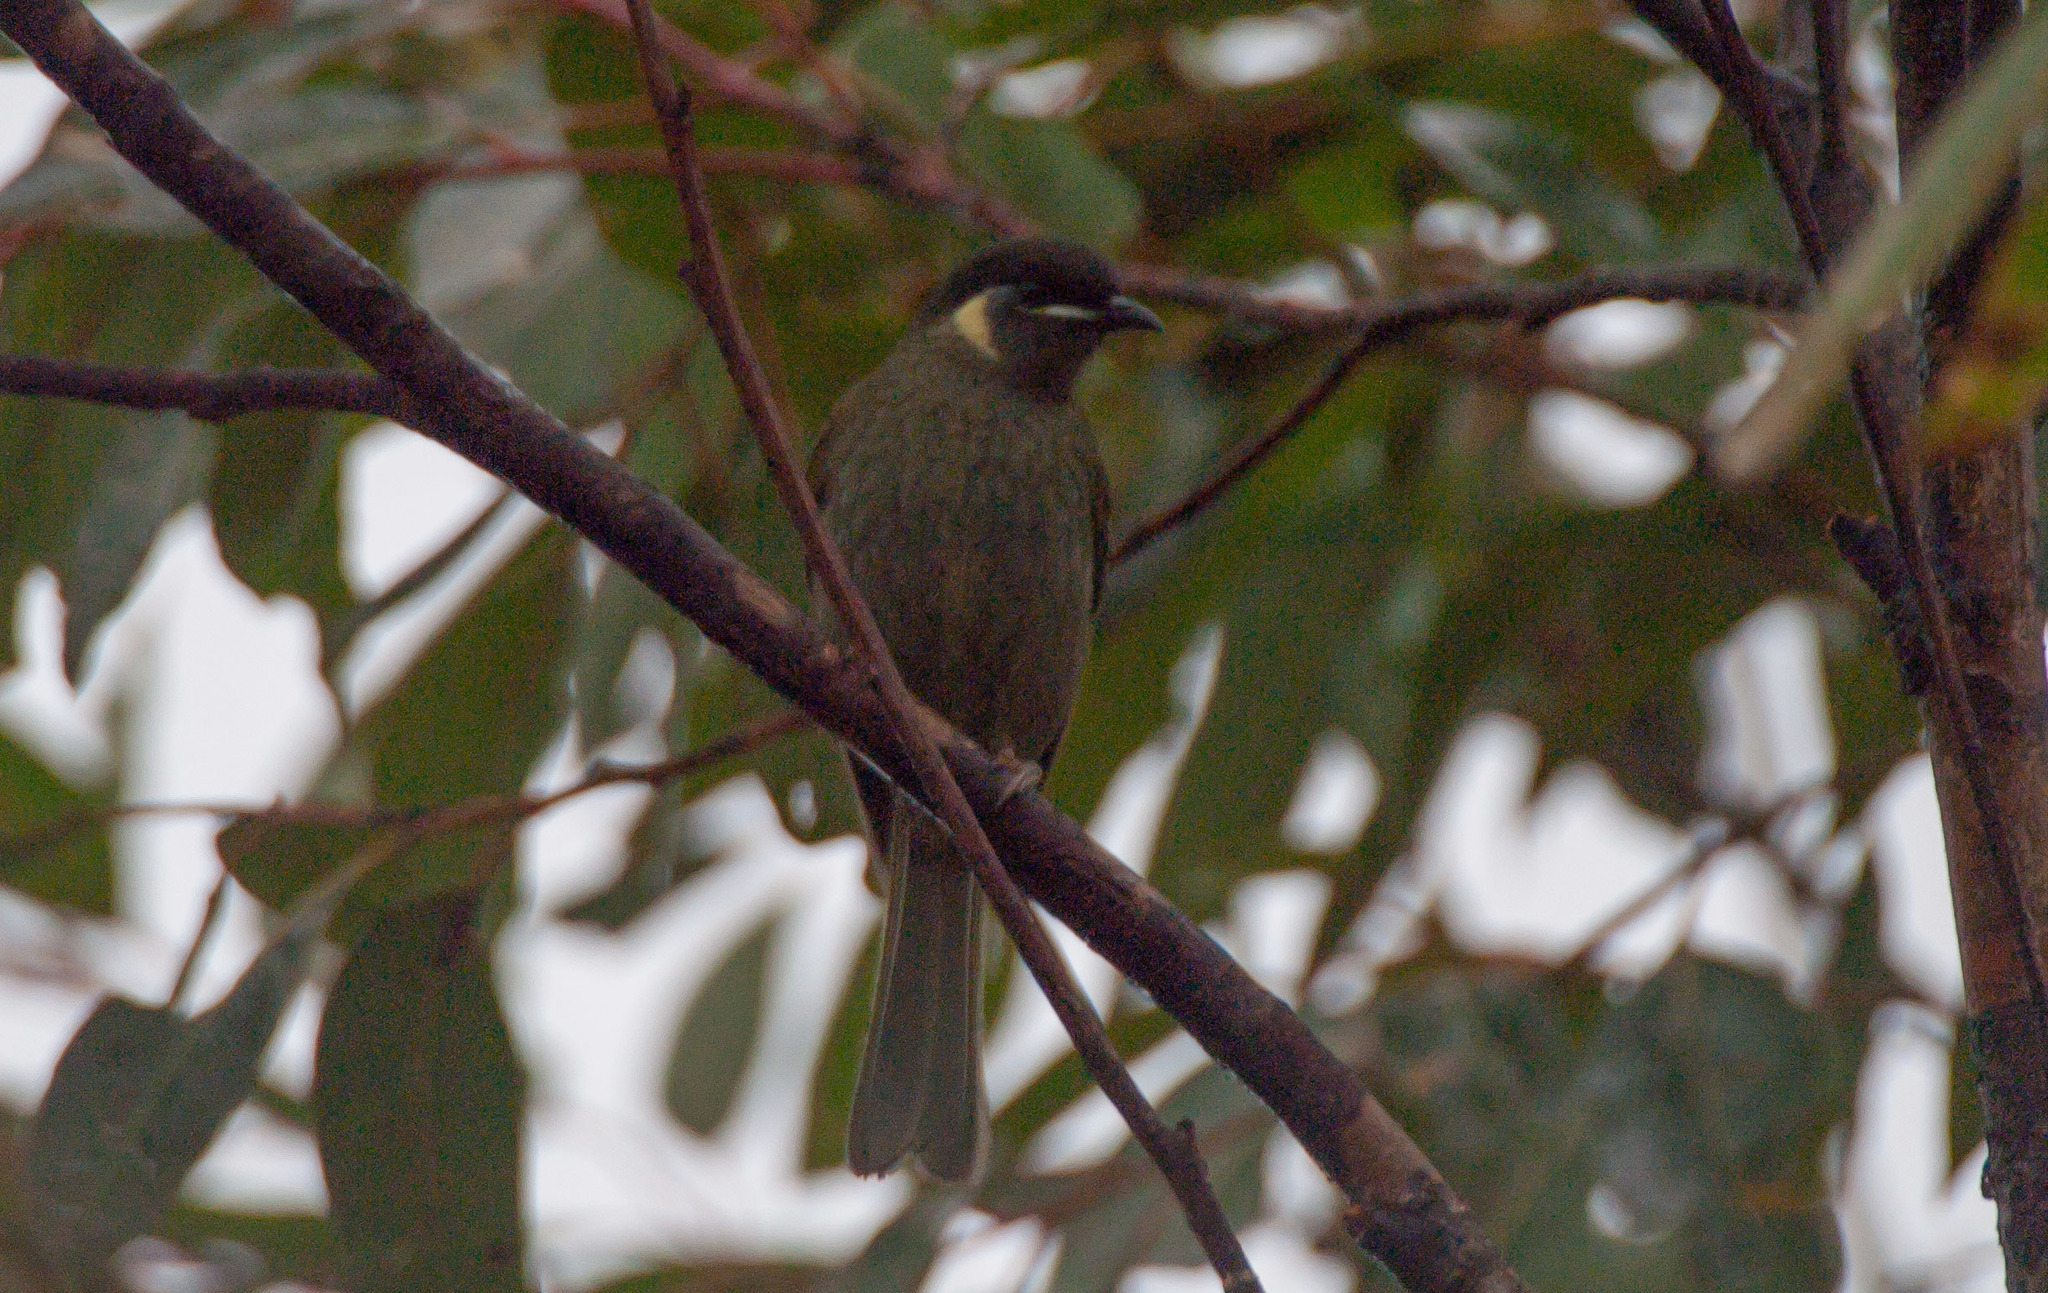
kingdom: Animalia
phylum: Chordata
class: Aves
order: Passeriformes
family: Meliphagidae
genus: Meliphaga
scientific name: Meliphaga lewinii
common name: Lewin's honeyeater
